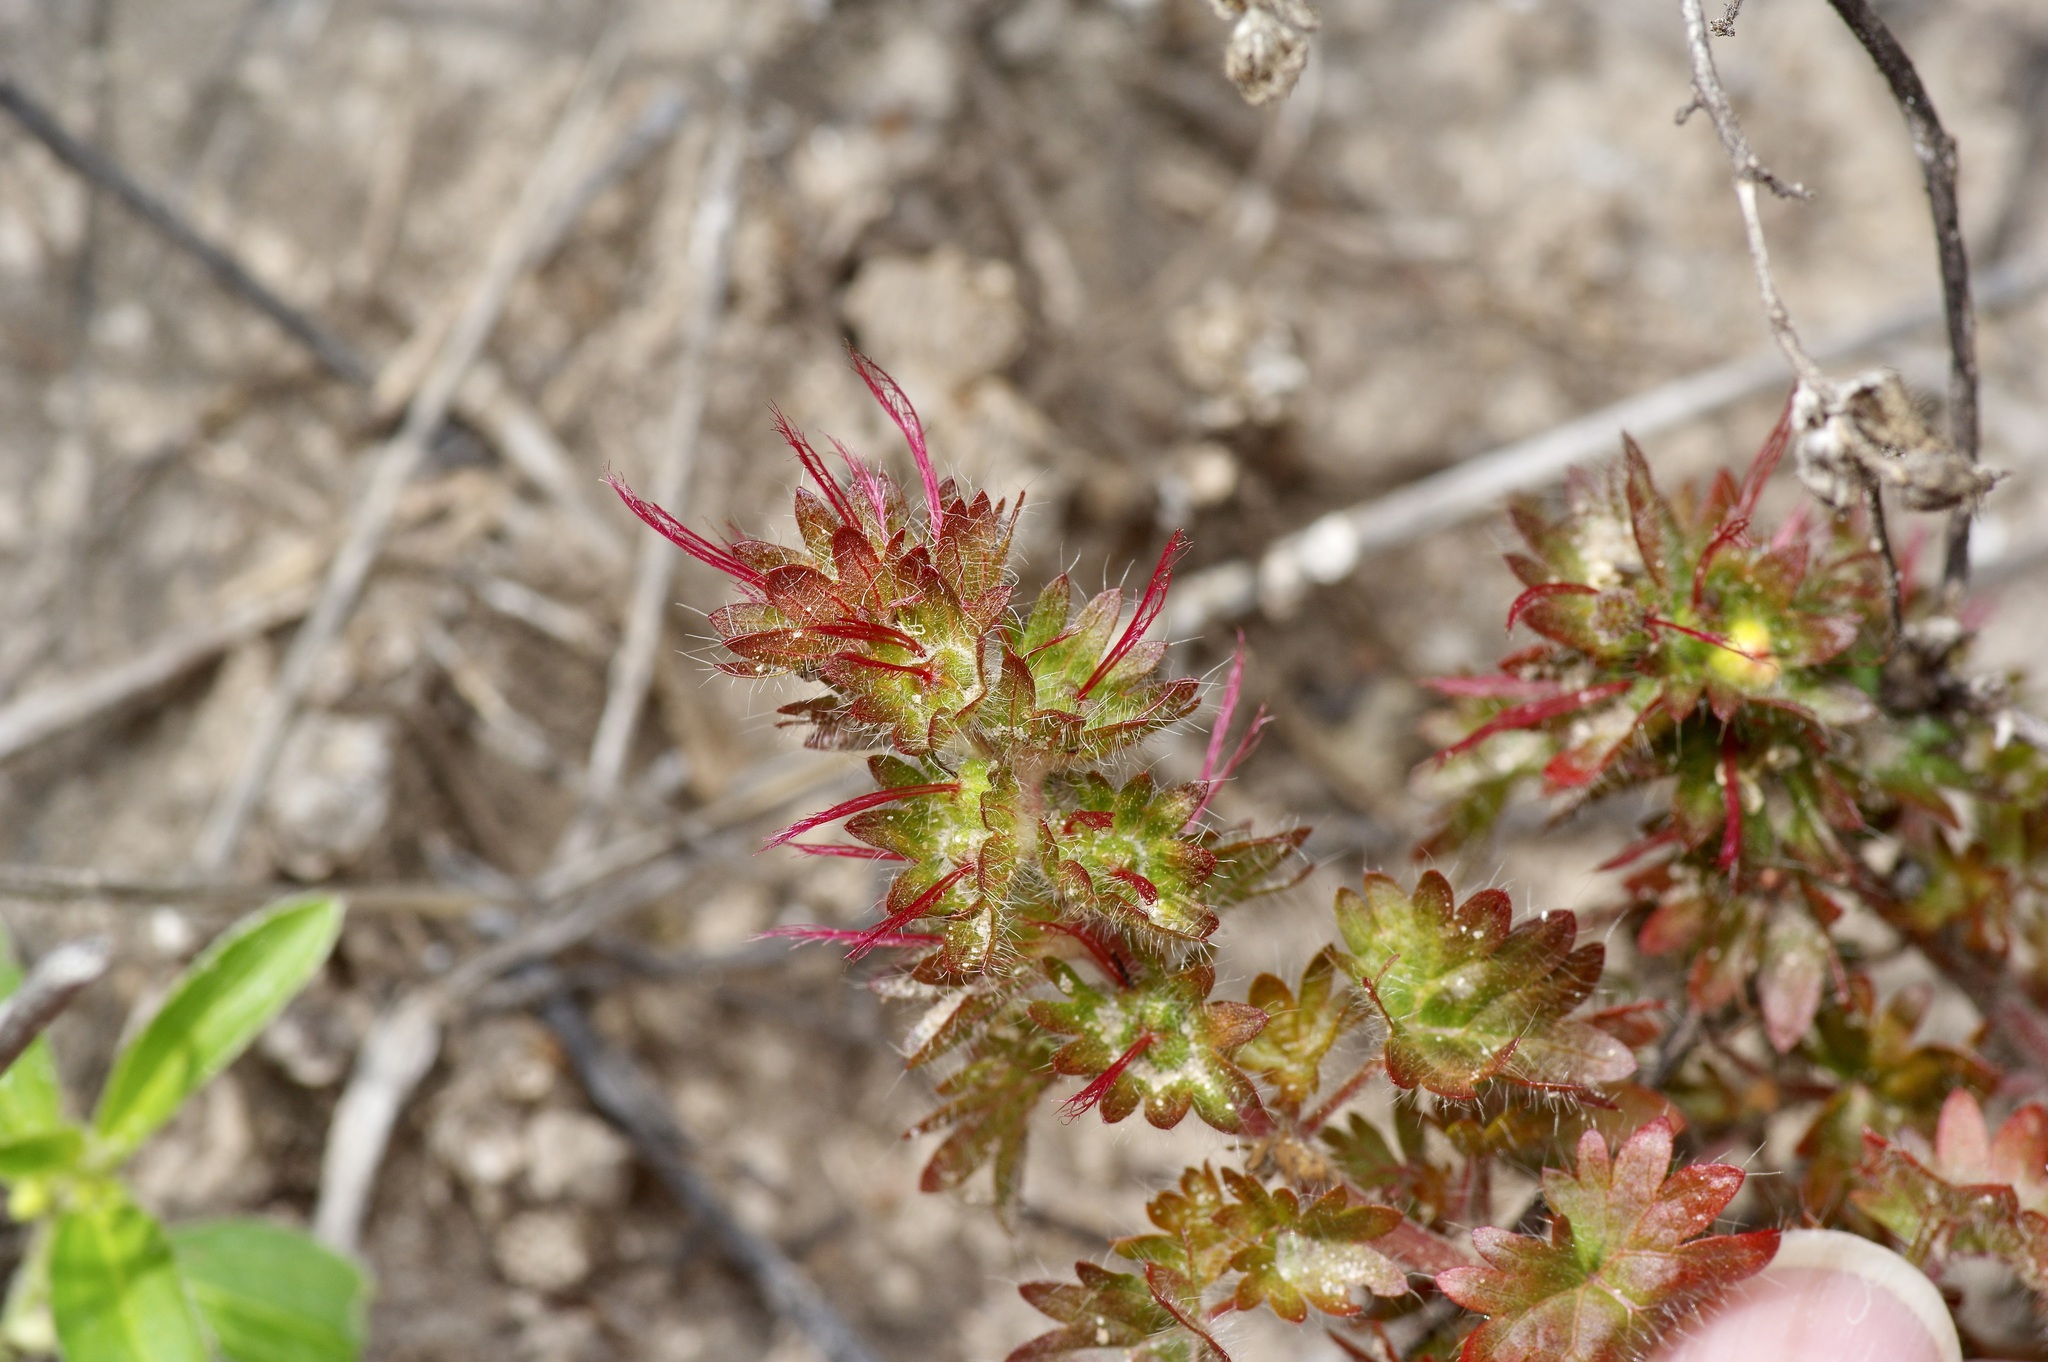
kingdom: Plantae
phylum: Tracheophyta
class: Magnoliopsida
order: Malpighiales
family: Euphorbiaceae
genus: Acalypha
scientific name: Acalypha radians
